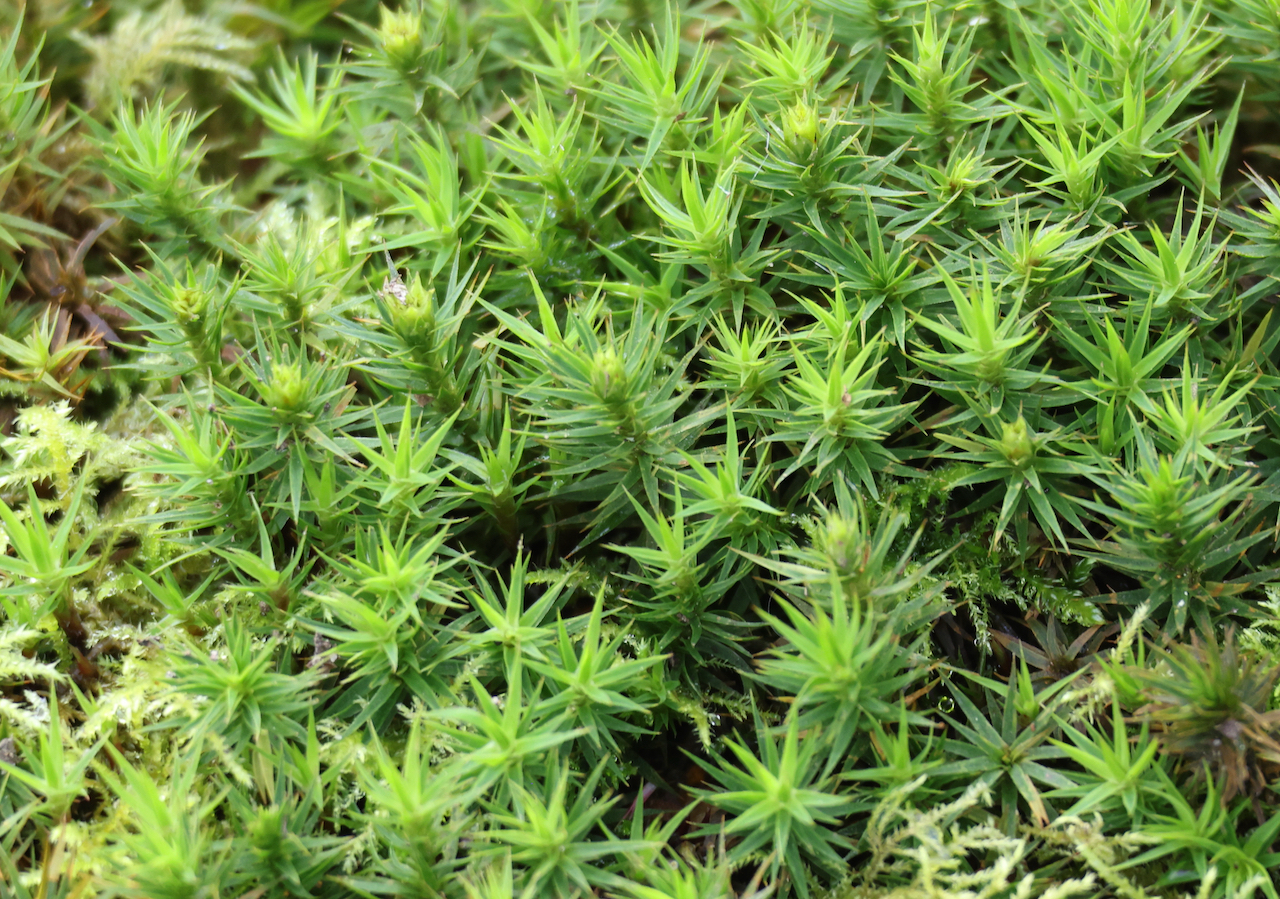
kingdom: Plantae
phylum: Bryophyta
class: Polytrichopsida
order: Polytrichales
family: Polytrichaceae
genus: Polytrichum
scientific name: Polytrichum formosum
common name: Bank haircap moss
